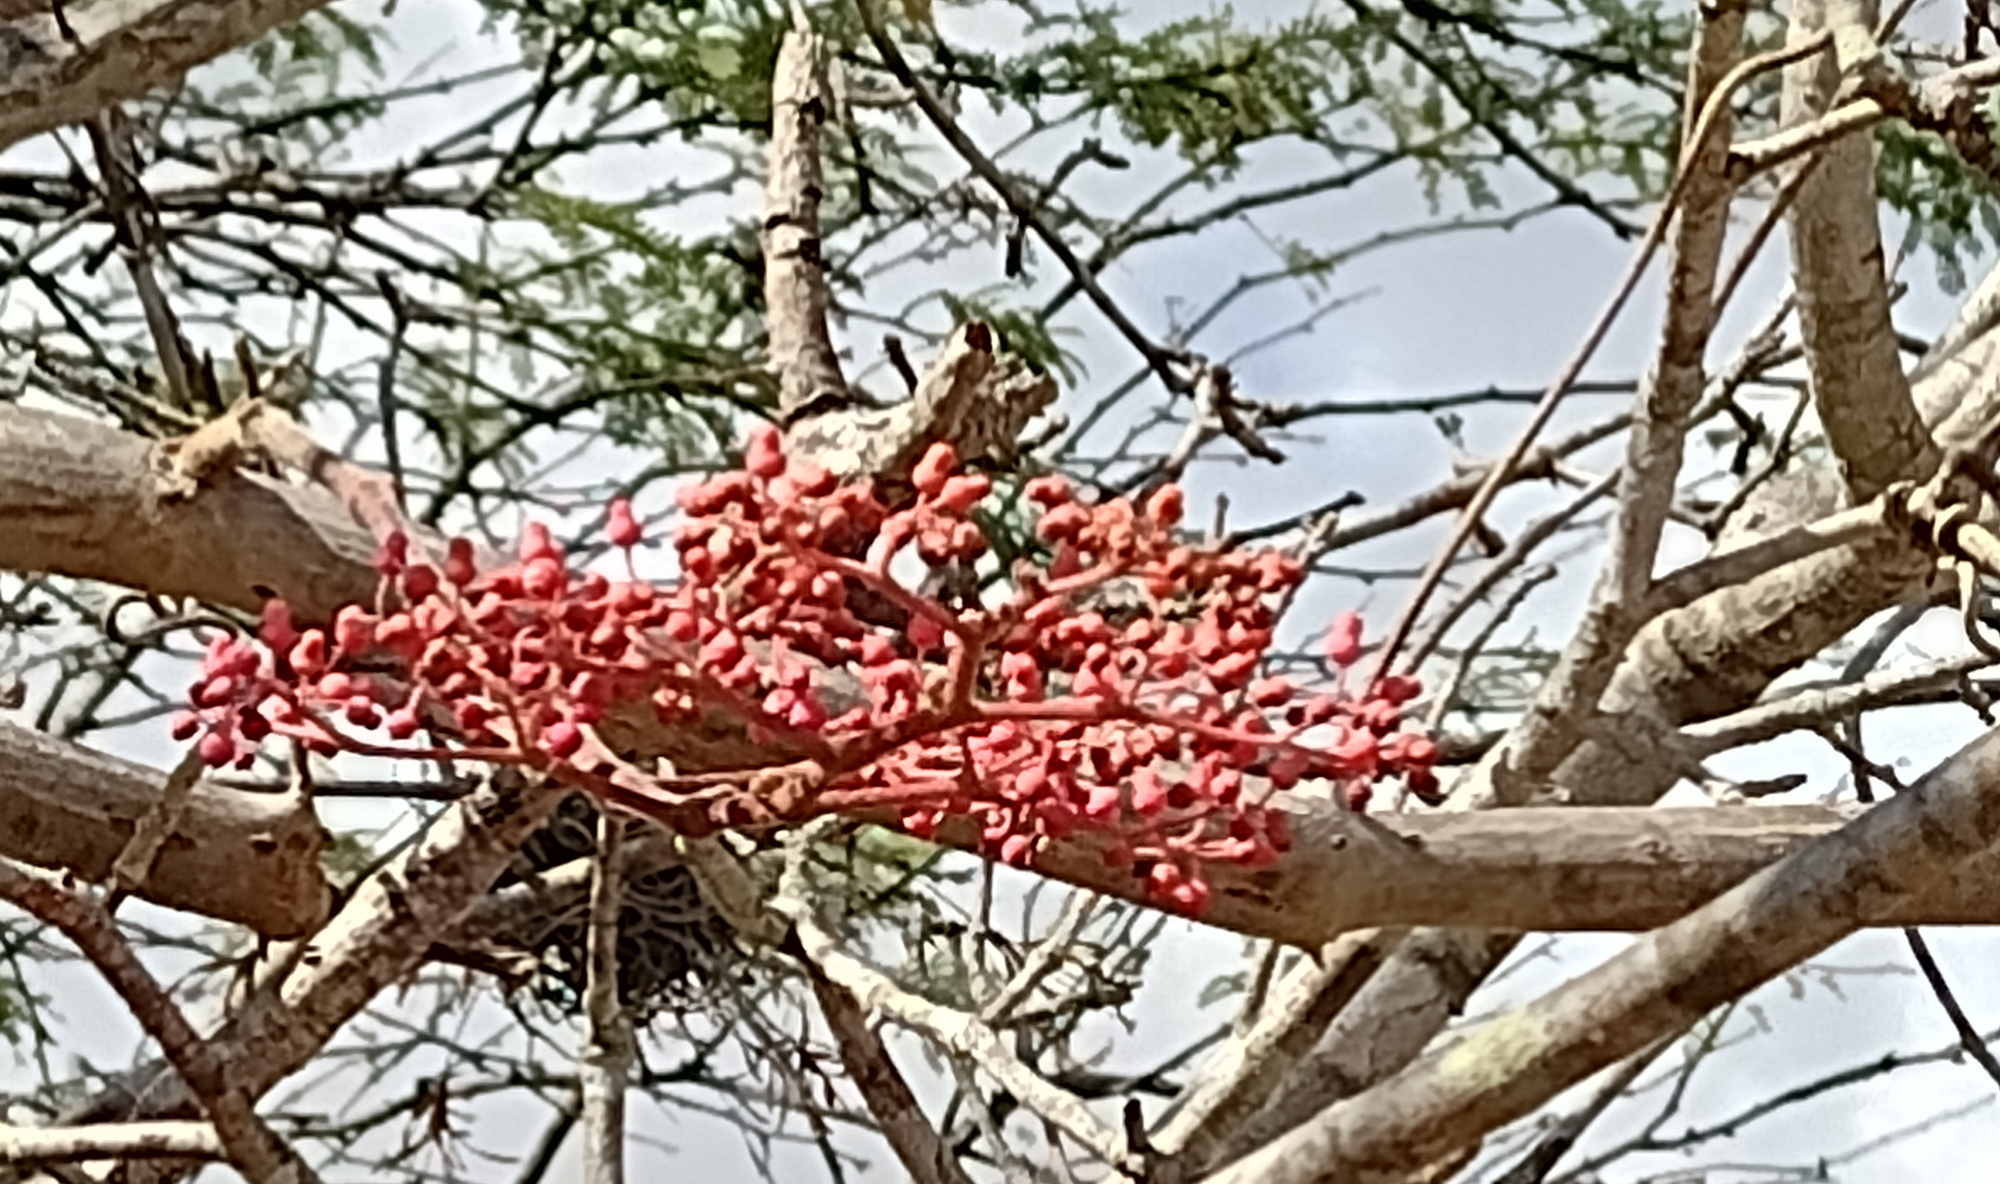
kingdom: Plantae
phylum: Tracheophyta
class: Magnoliopsida
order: Vitales
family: Vitaceae
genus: Cissus
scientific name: Cissus decidua
